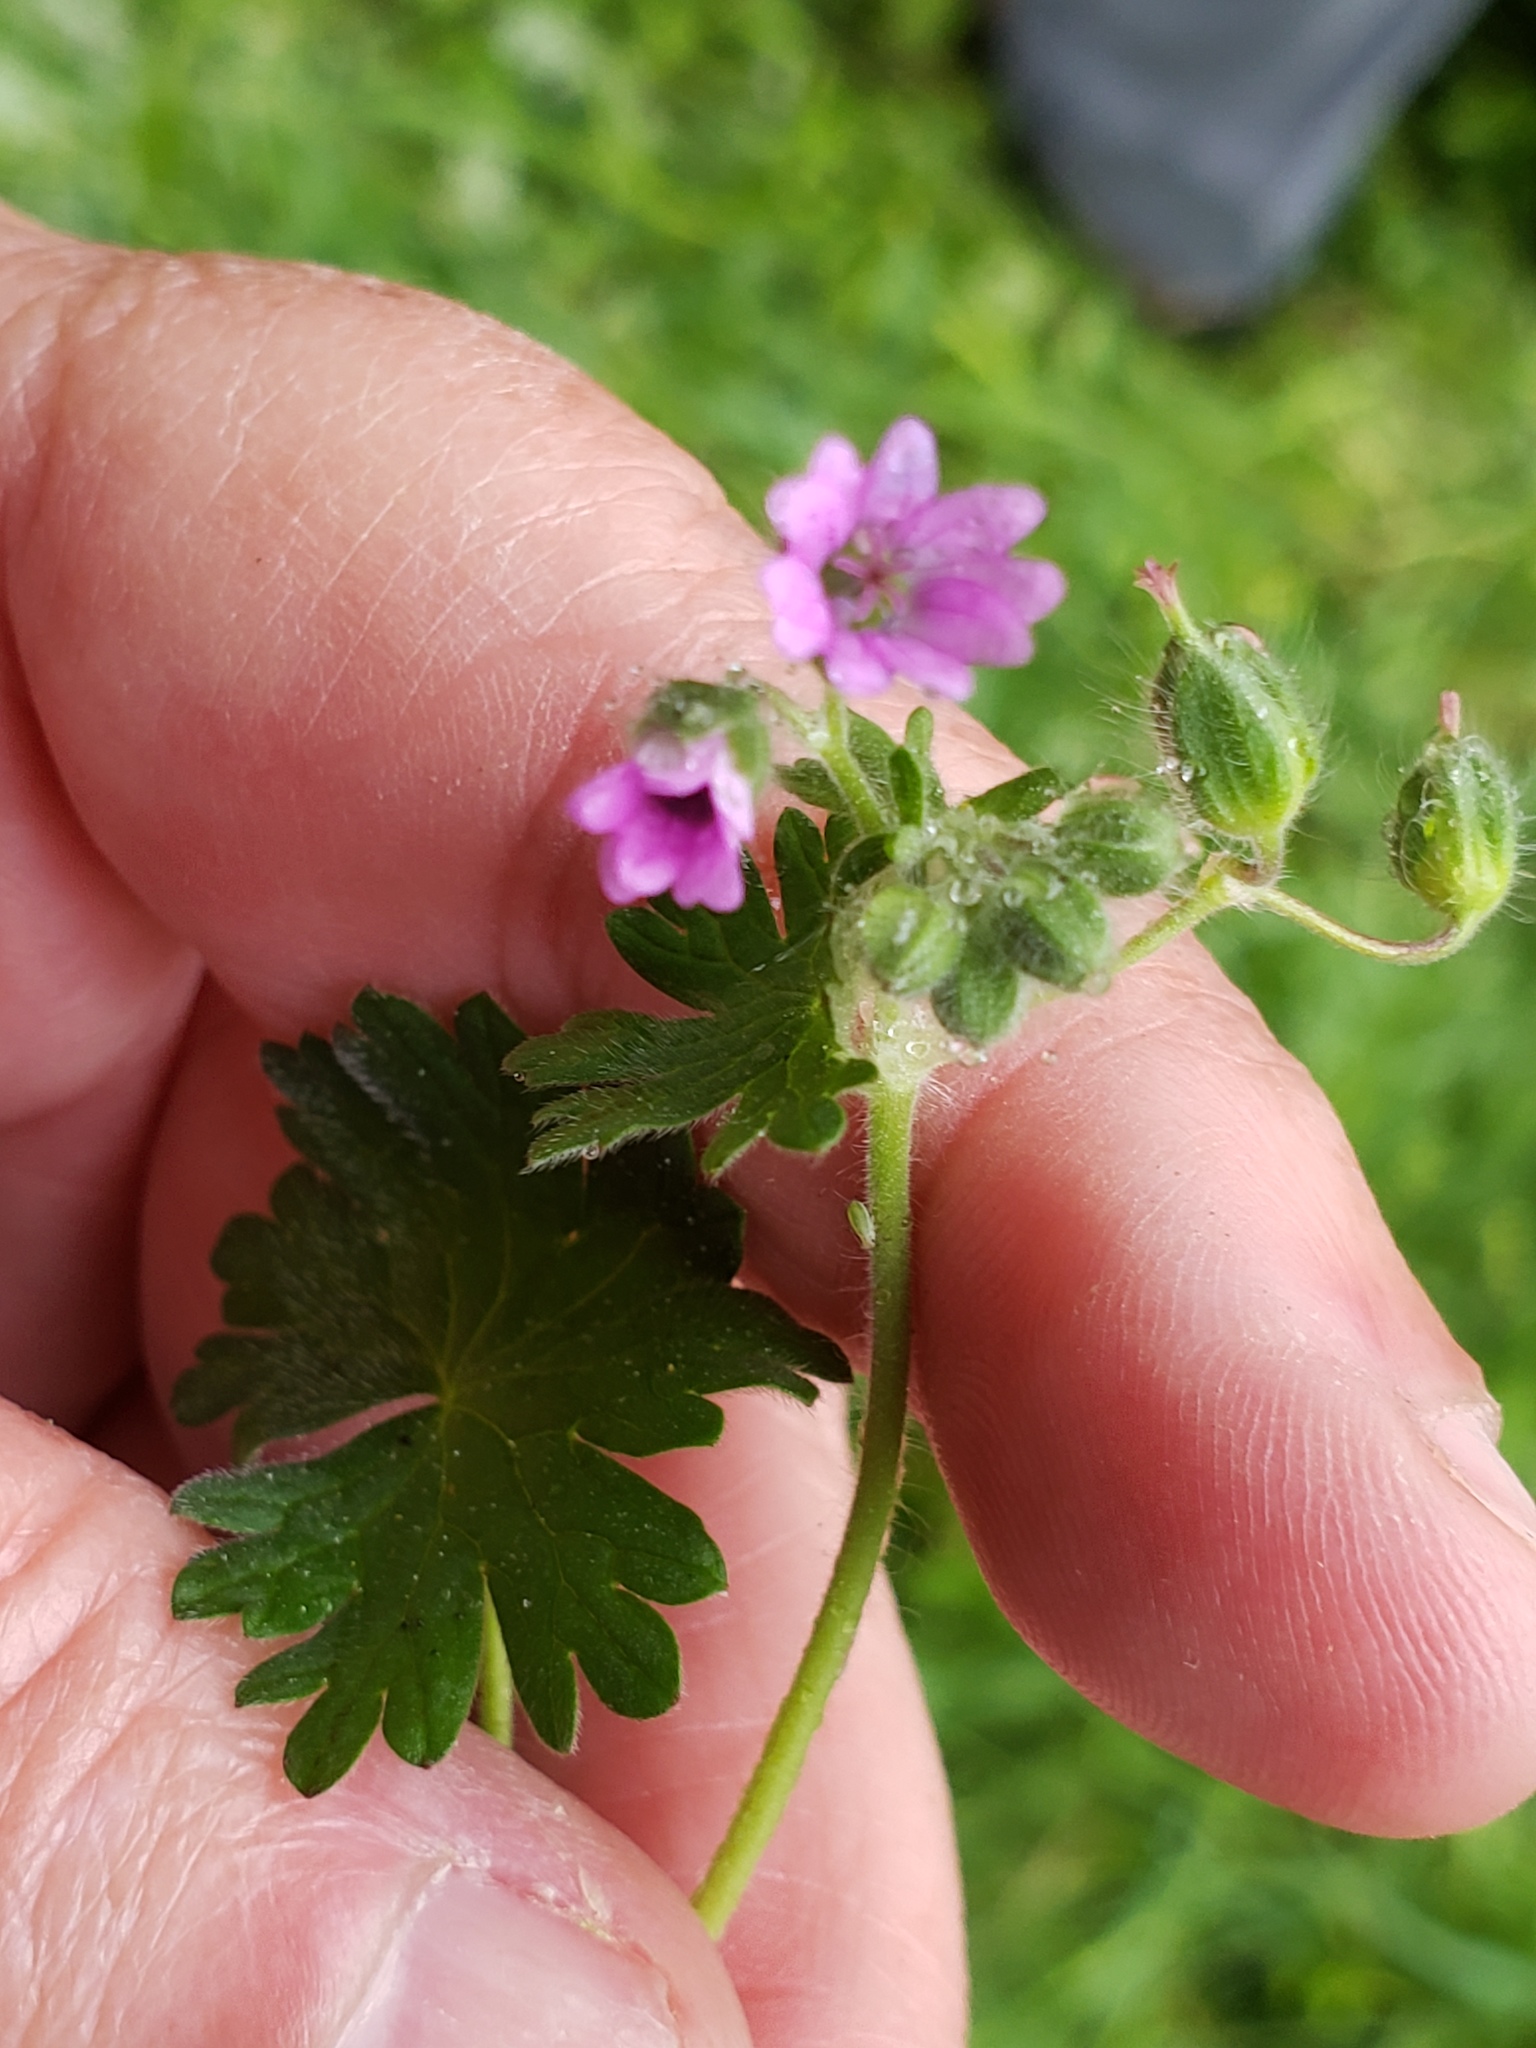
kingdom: Plantae
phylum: Tracheophyta
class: Magnoliopsida
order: Geraniales
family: Geraniaceae
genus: Geranium
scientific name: Geranium molle
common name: Dove's-foot crane's-bill
